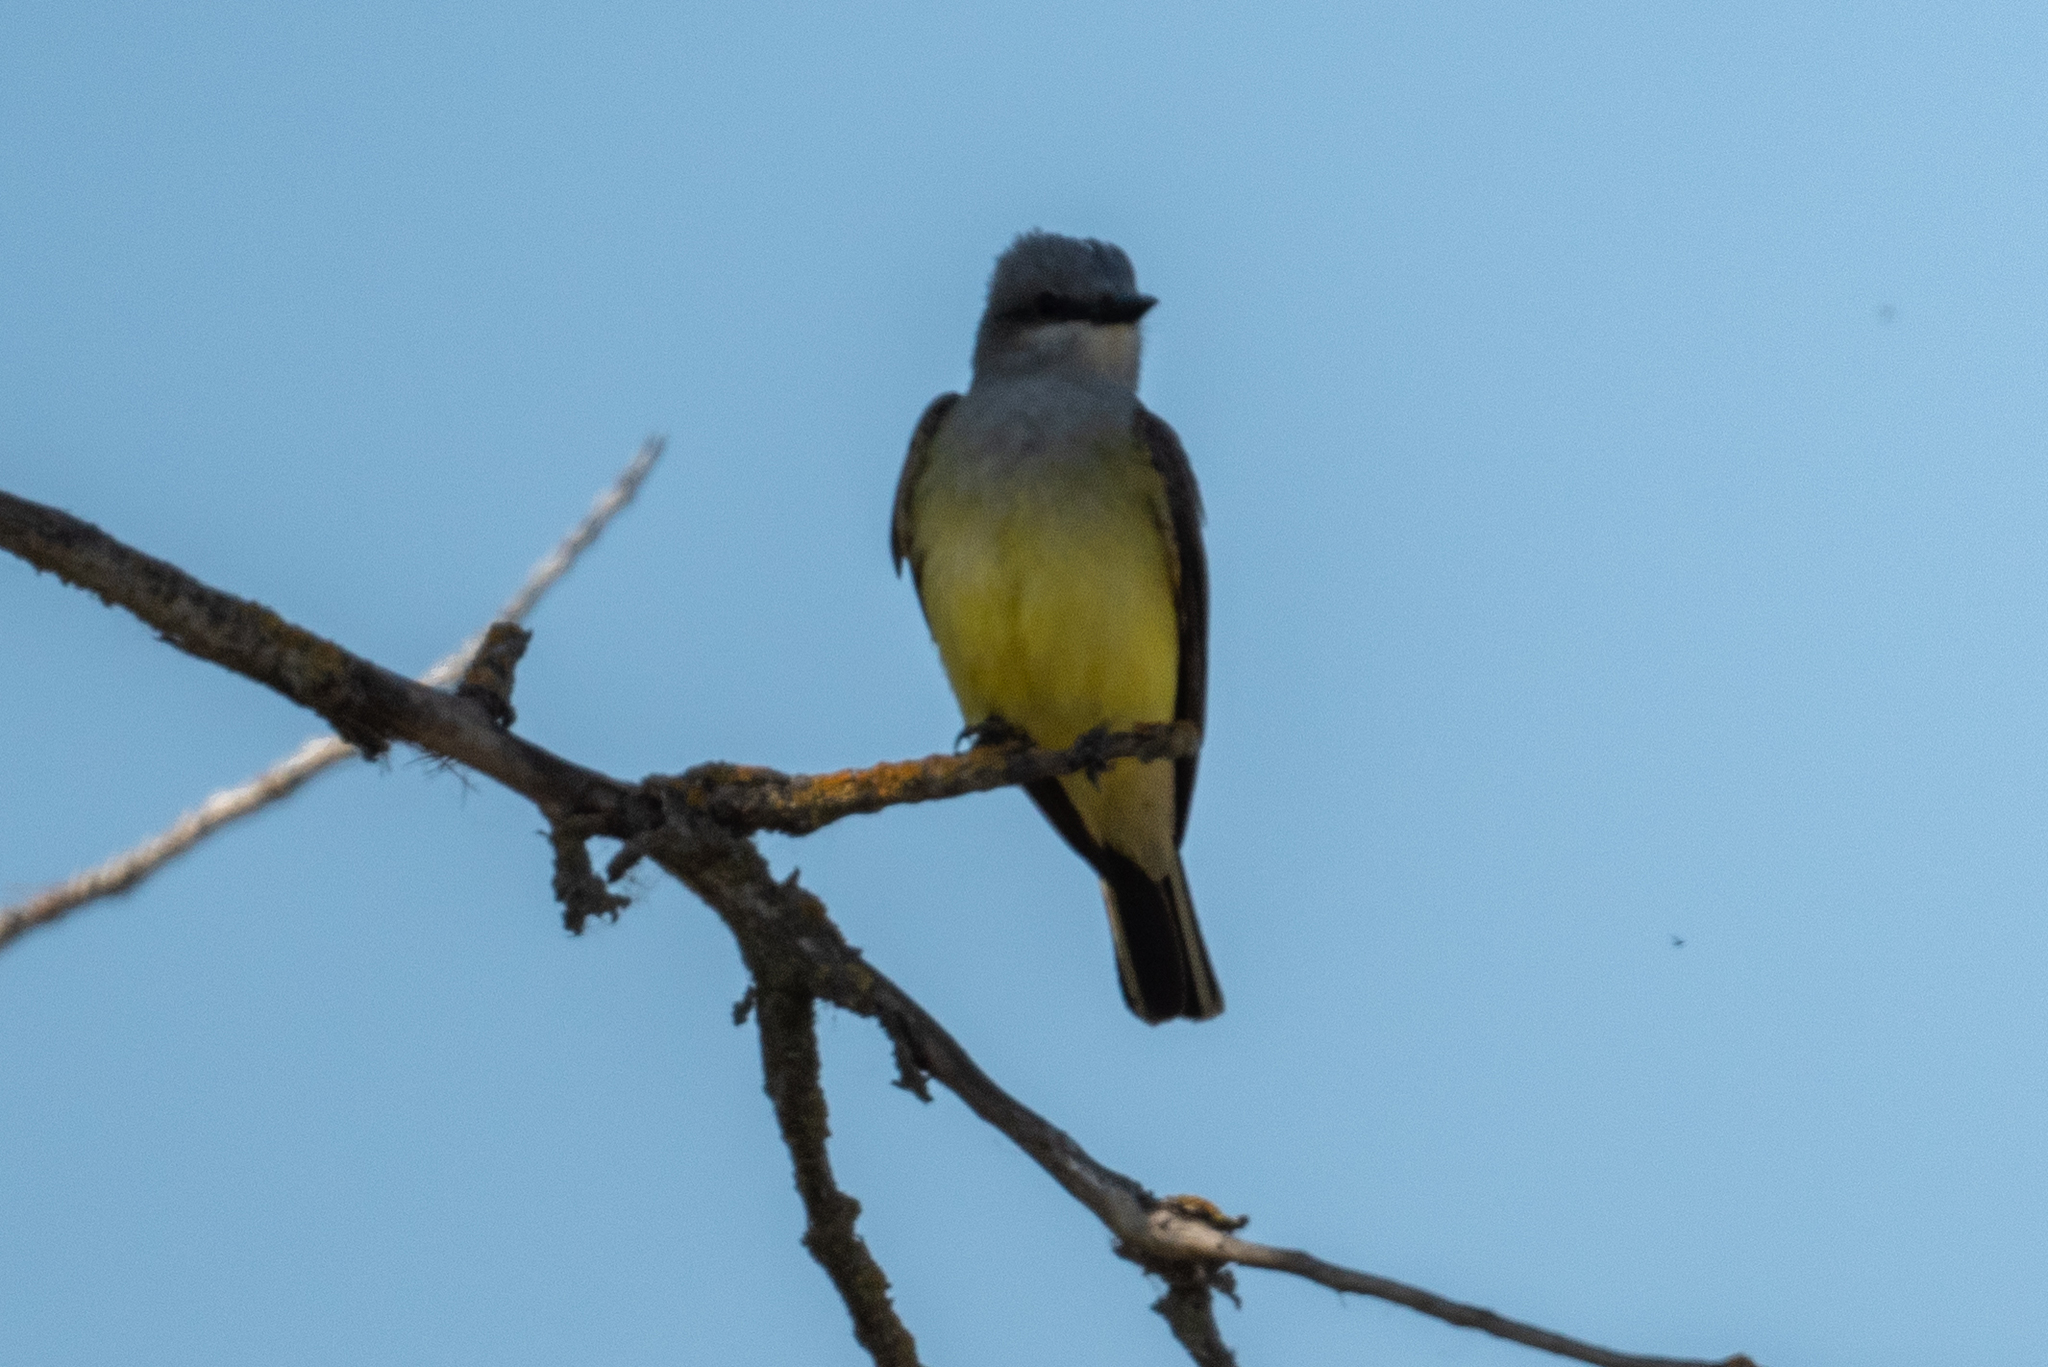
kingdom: Animalia
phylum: Chordata
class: Aves
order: Passeriformes
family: Tyrannidae
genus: Tyrannus
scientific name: Tyrannus verticalis
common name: Western kingbird
